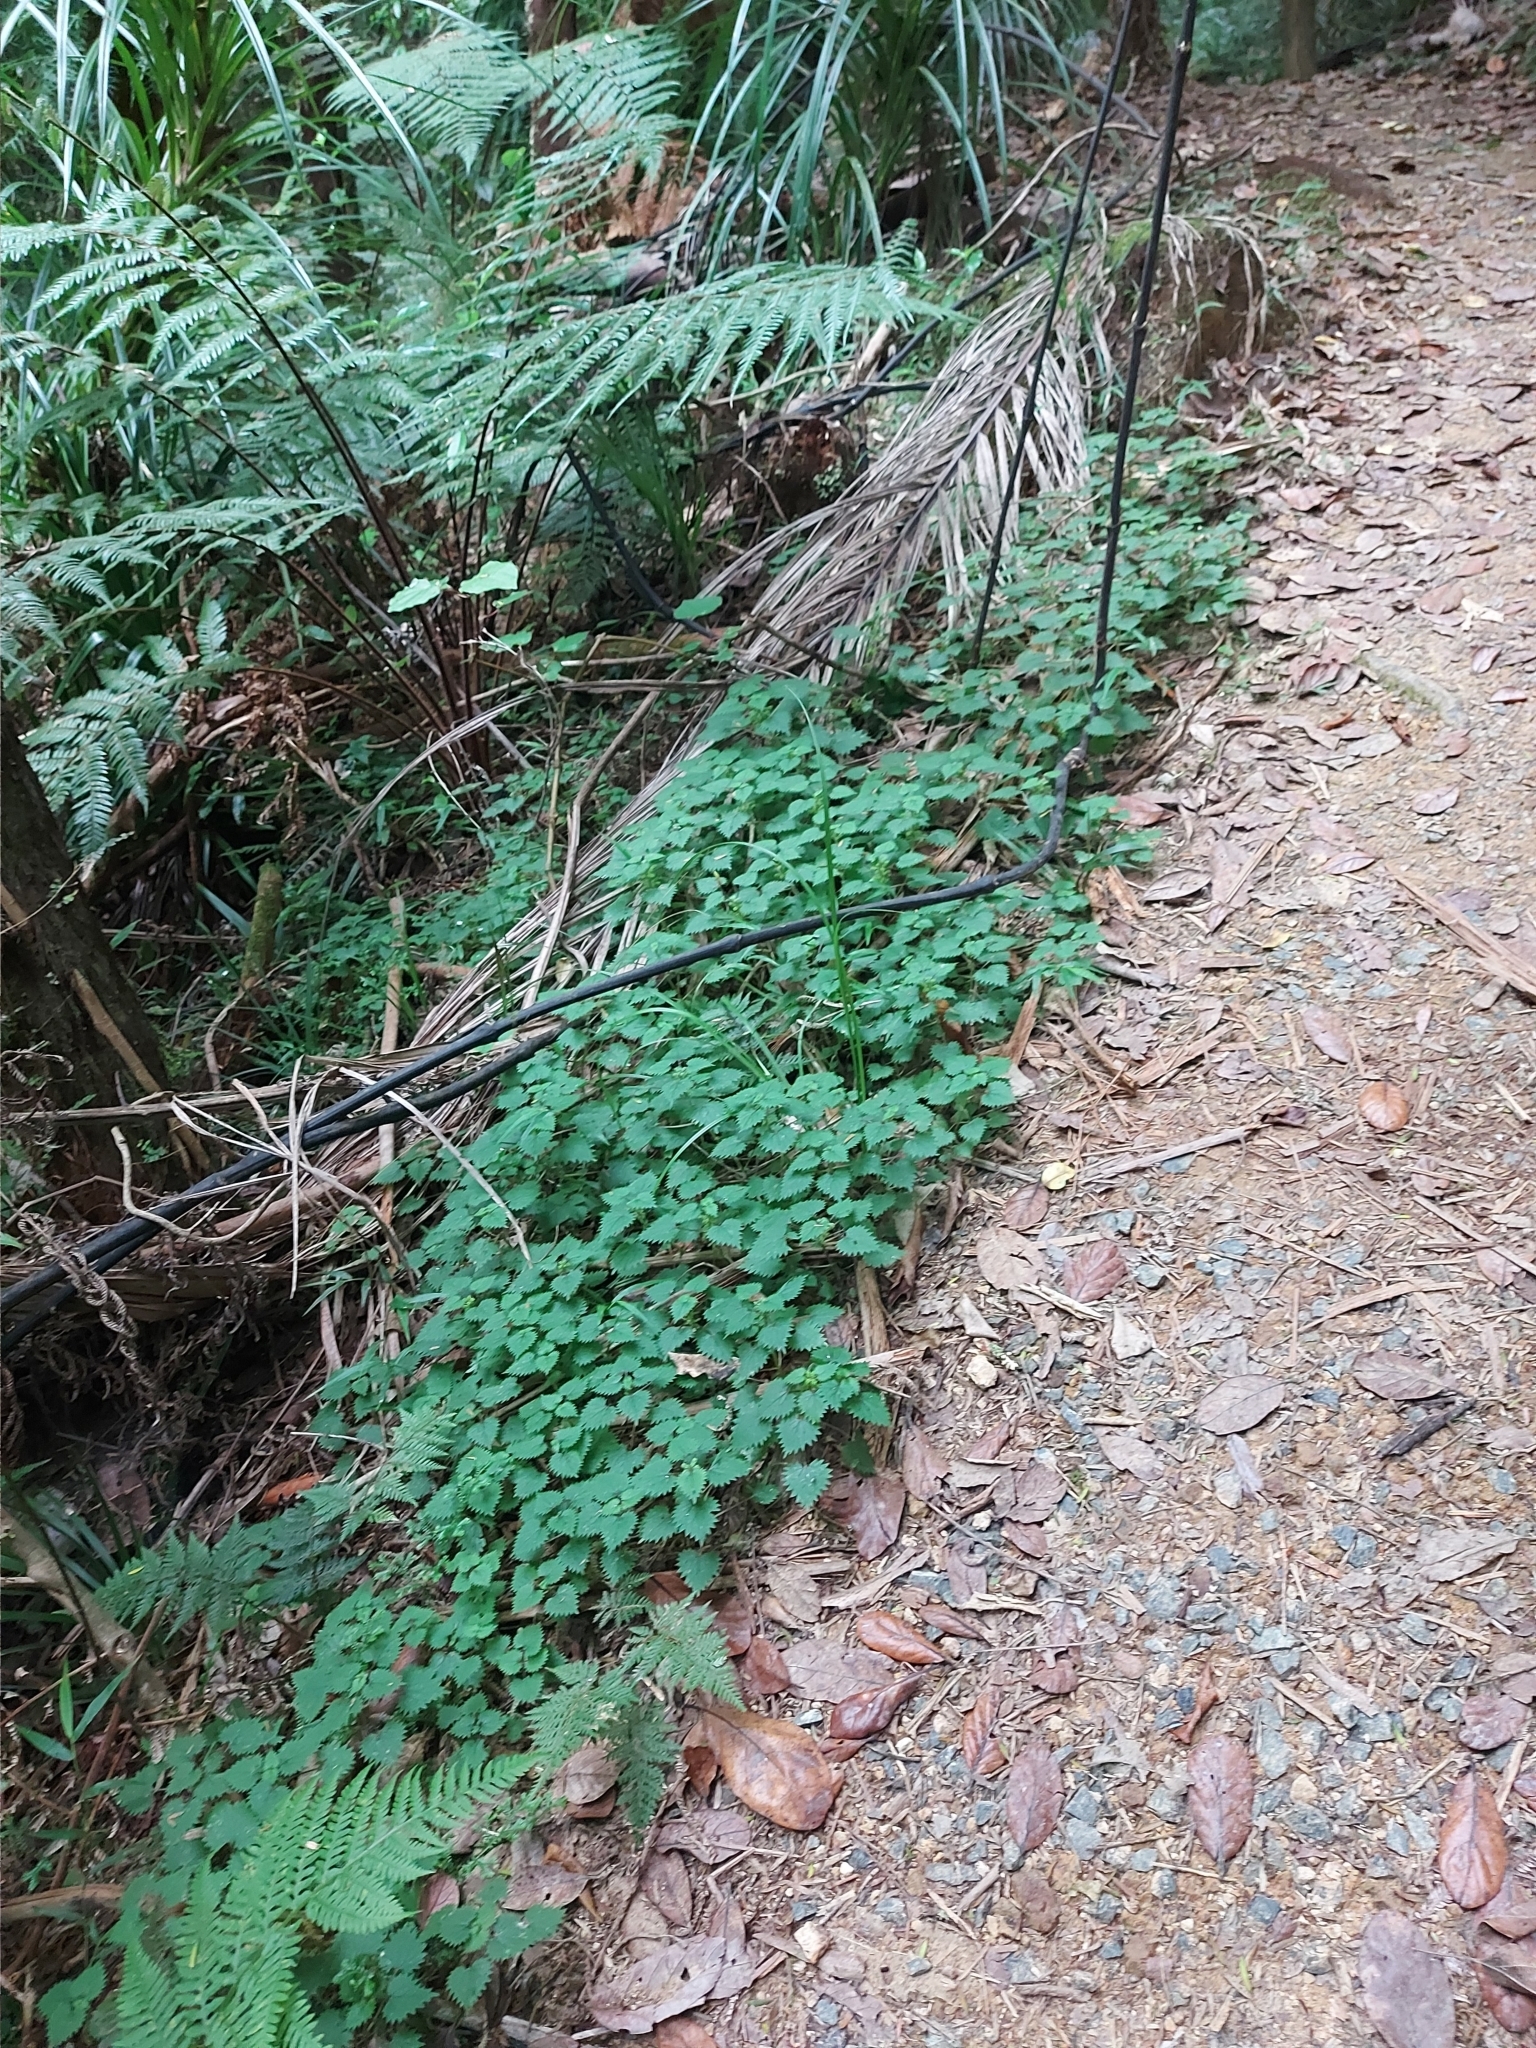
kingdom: Plantae
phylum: Tracheophyta
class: Magnoliopsida
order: Rosales
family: Urticaceae
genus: Urtica
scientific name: Urtica sykesii
